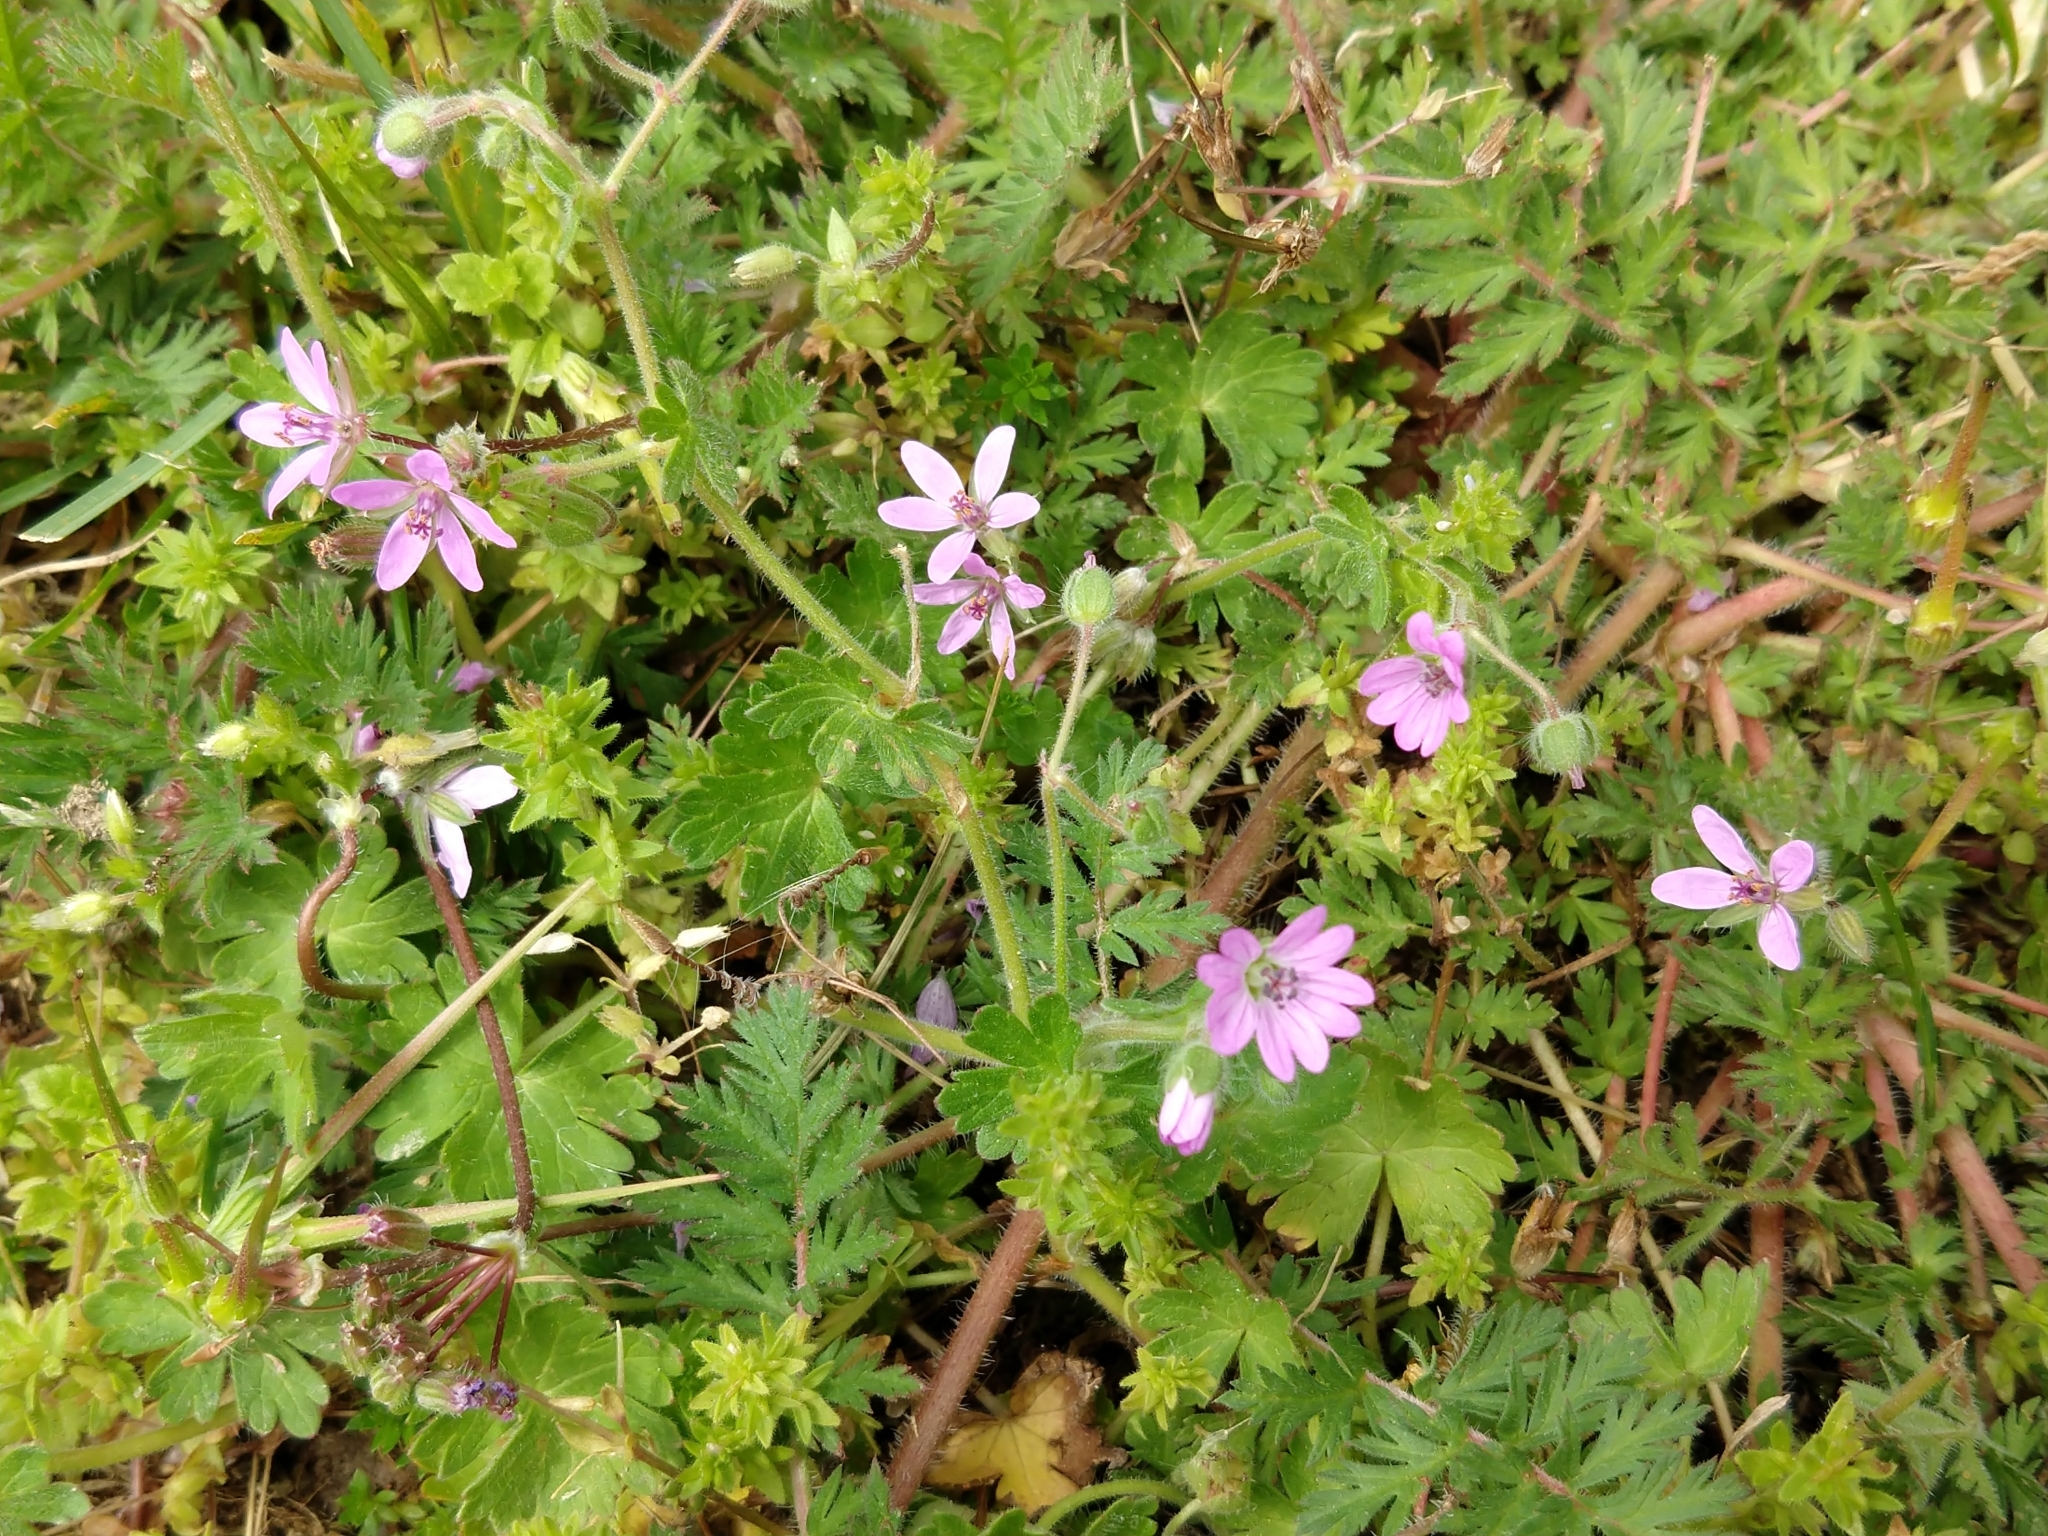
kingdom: Plantae
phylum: Tracheophyta
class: Magnoliopsida
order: Geraniales
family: Geraniaceae
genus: Erodium
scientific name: Erodium cicutarium
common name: Common stork's-bill
